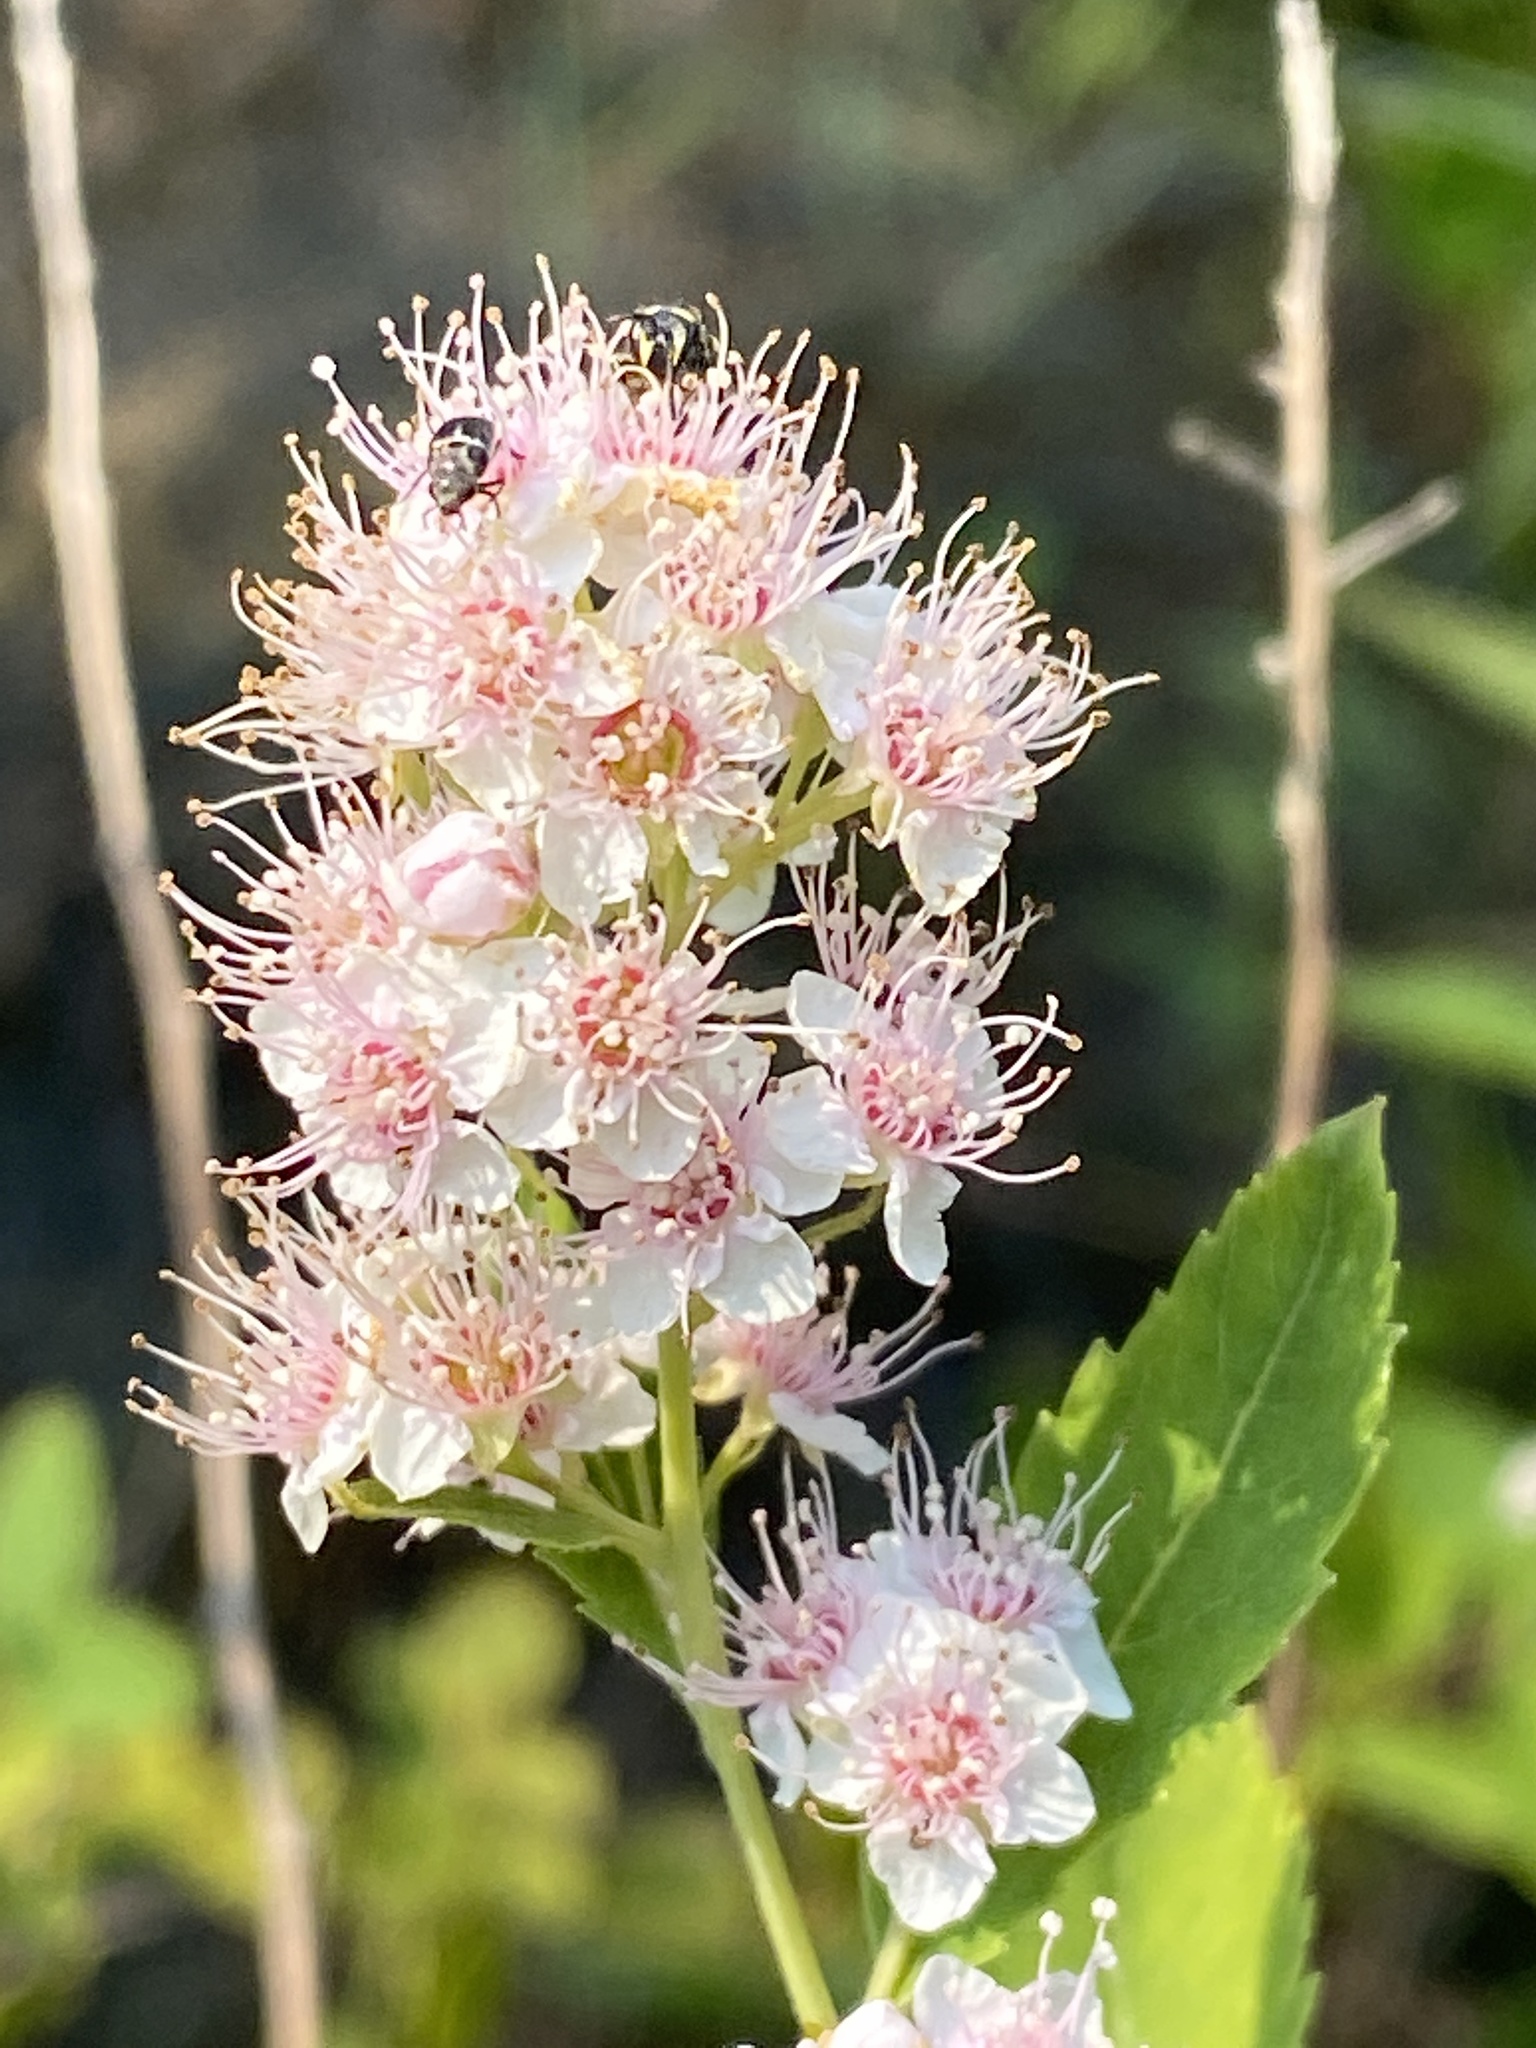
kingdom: Plantae
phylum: Tracheophyta
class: Magnoliopsida
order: Rosales
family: Rosaceae
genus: Spiraea
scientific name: Spiraea alba
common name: Pale bridewort
